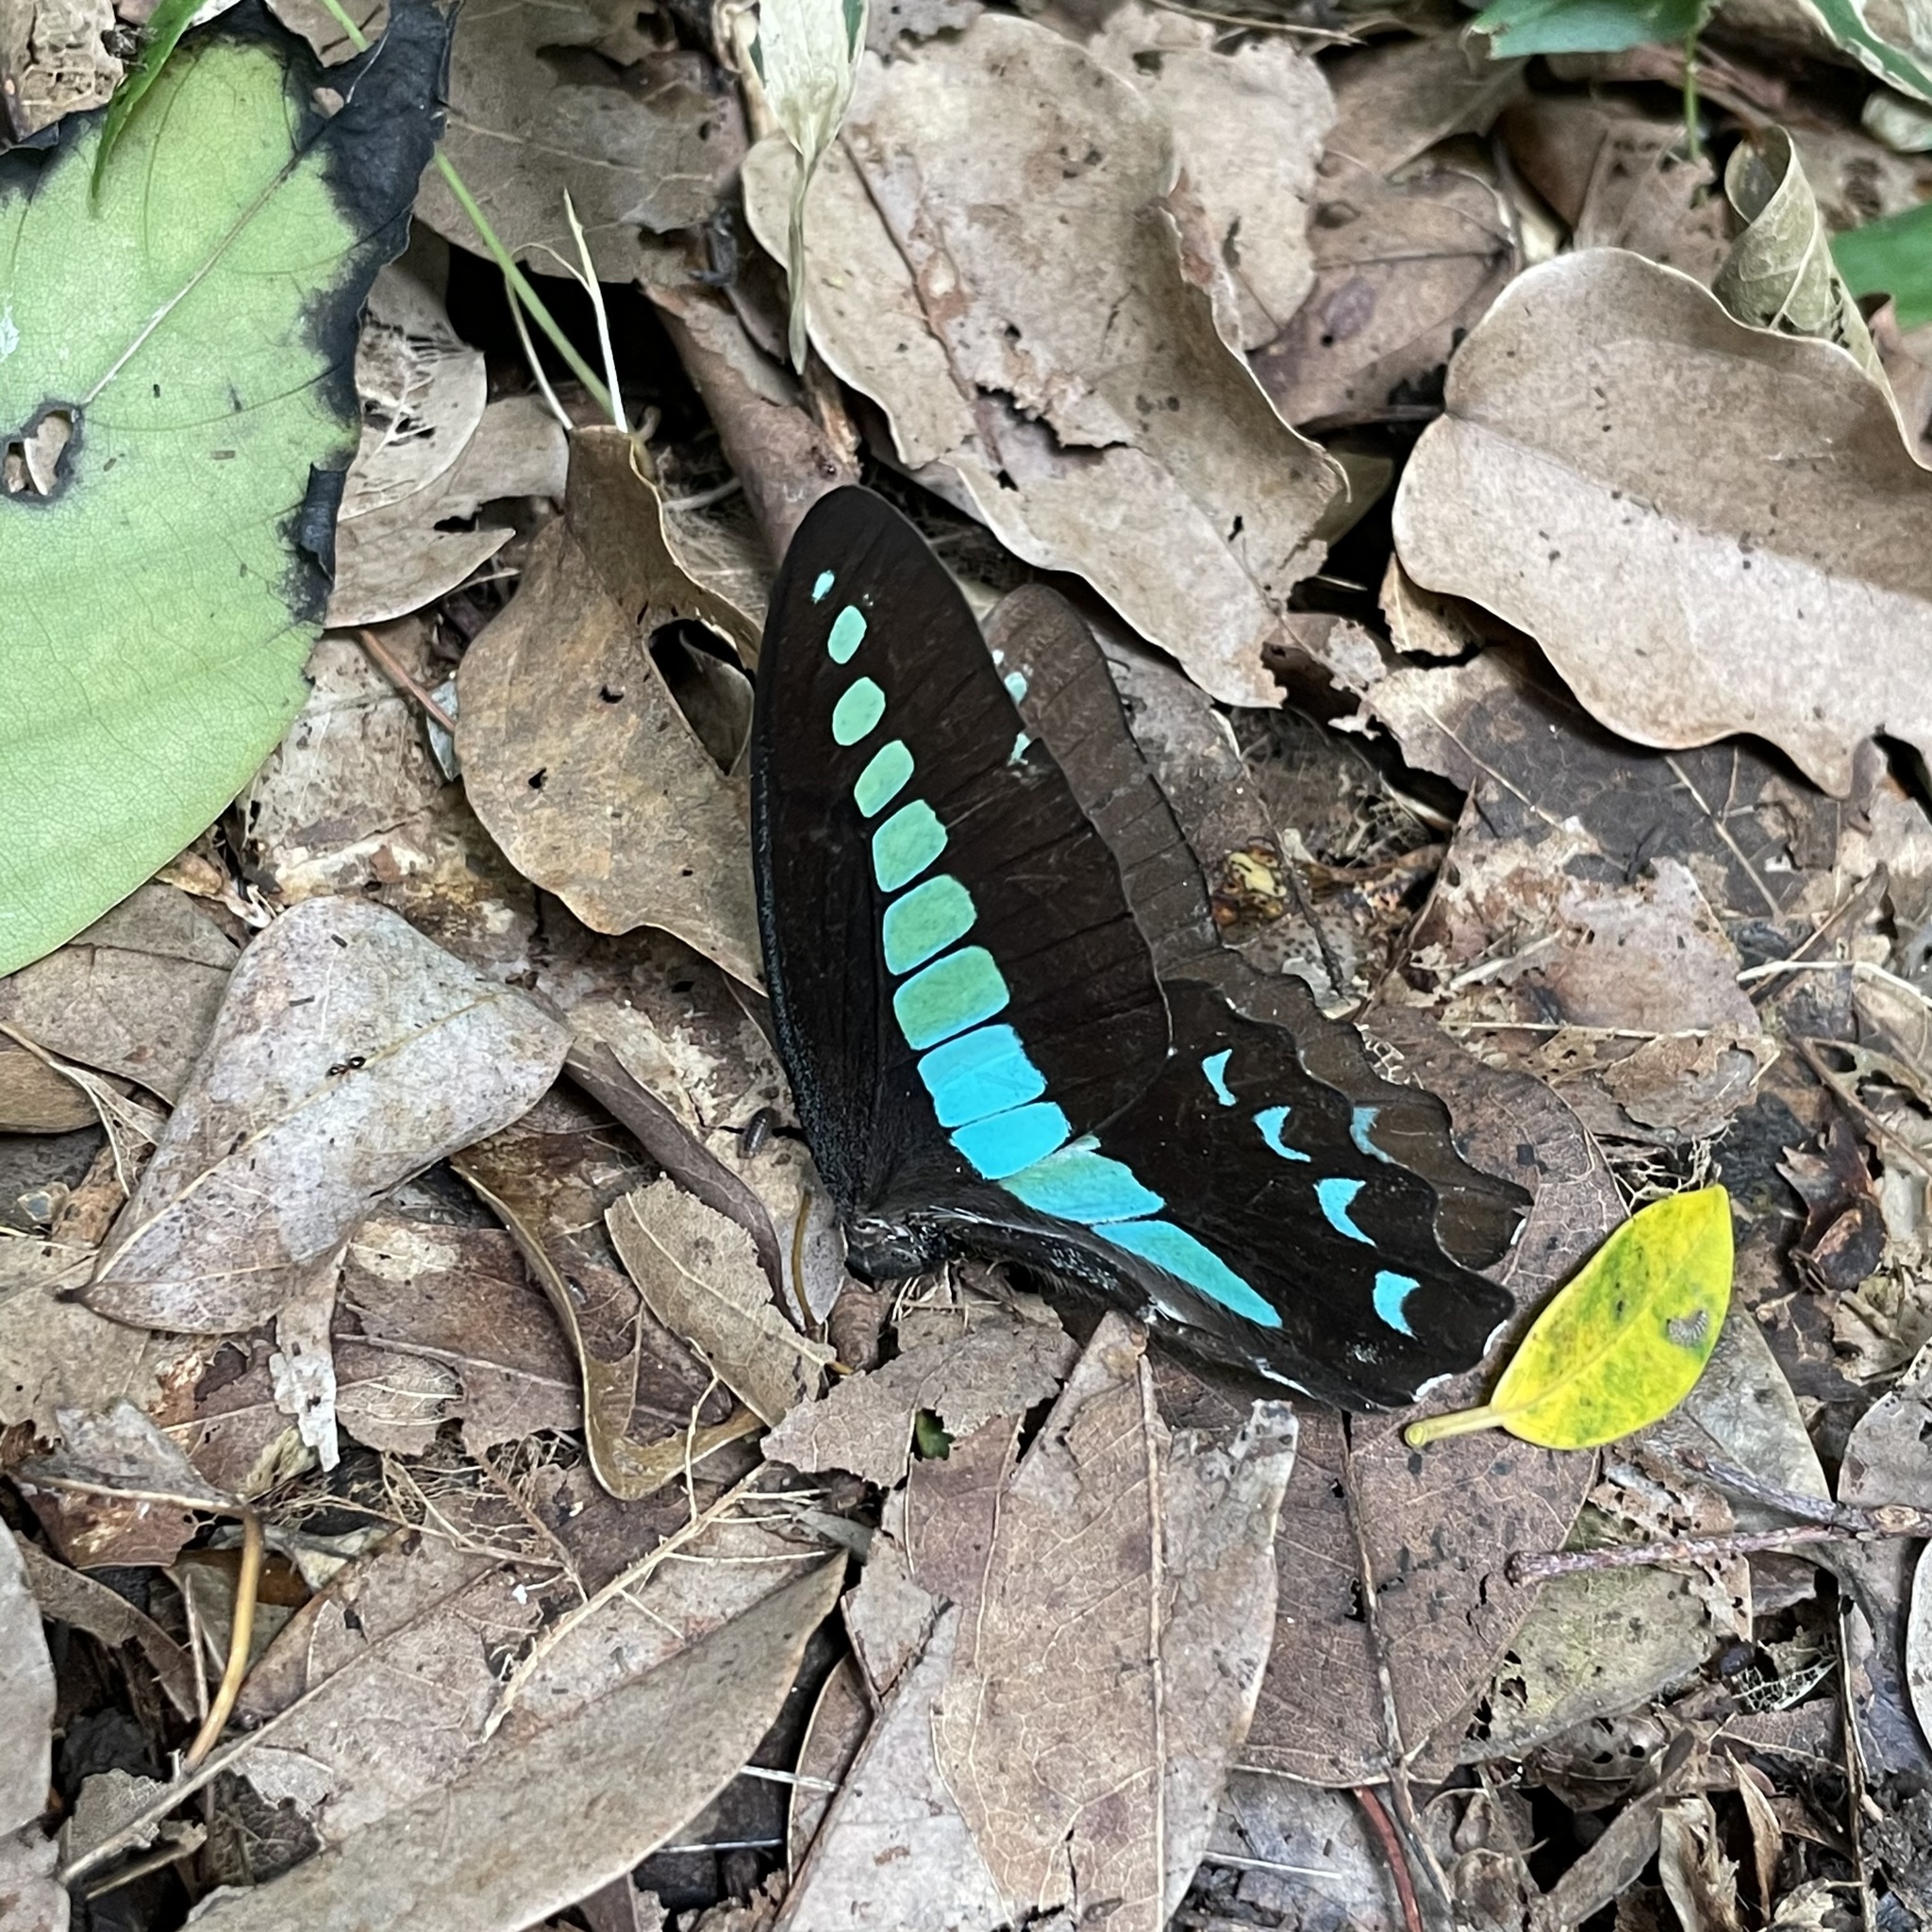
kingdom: Fungi
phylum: Ascomycota
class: Sordariomycetes
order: Microascales
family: Microascaceae
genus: Graphium
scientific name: Graphium sarpedon
